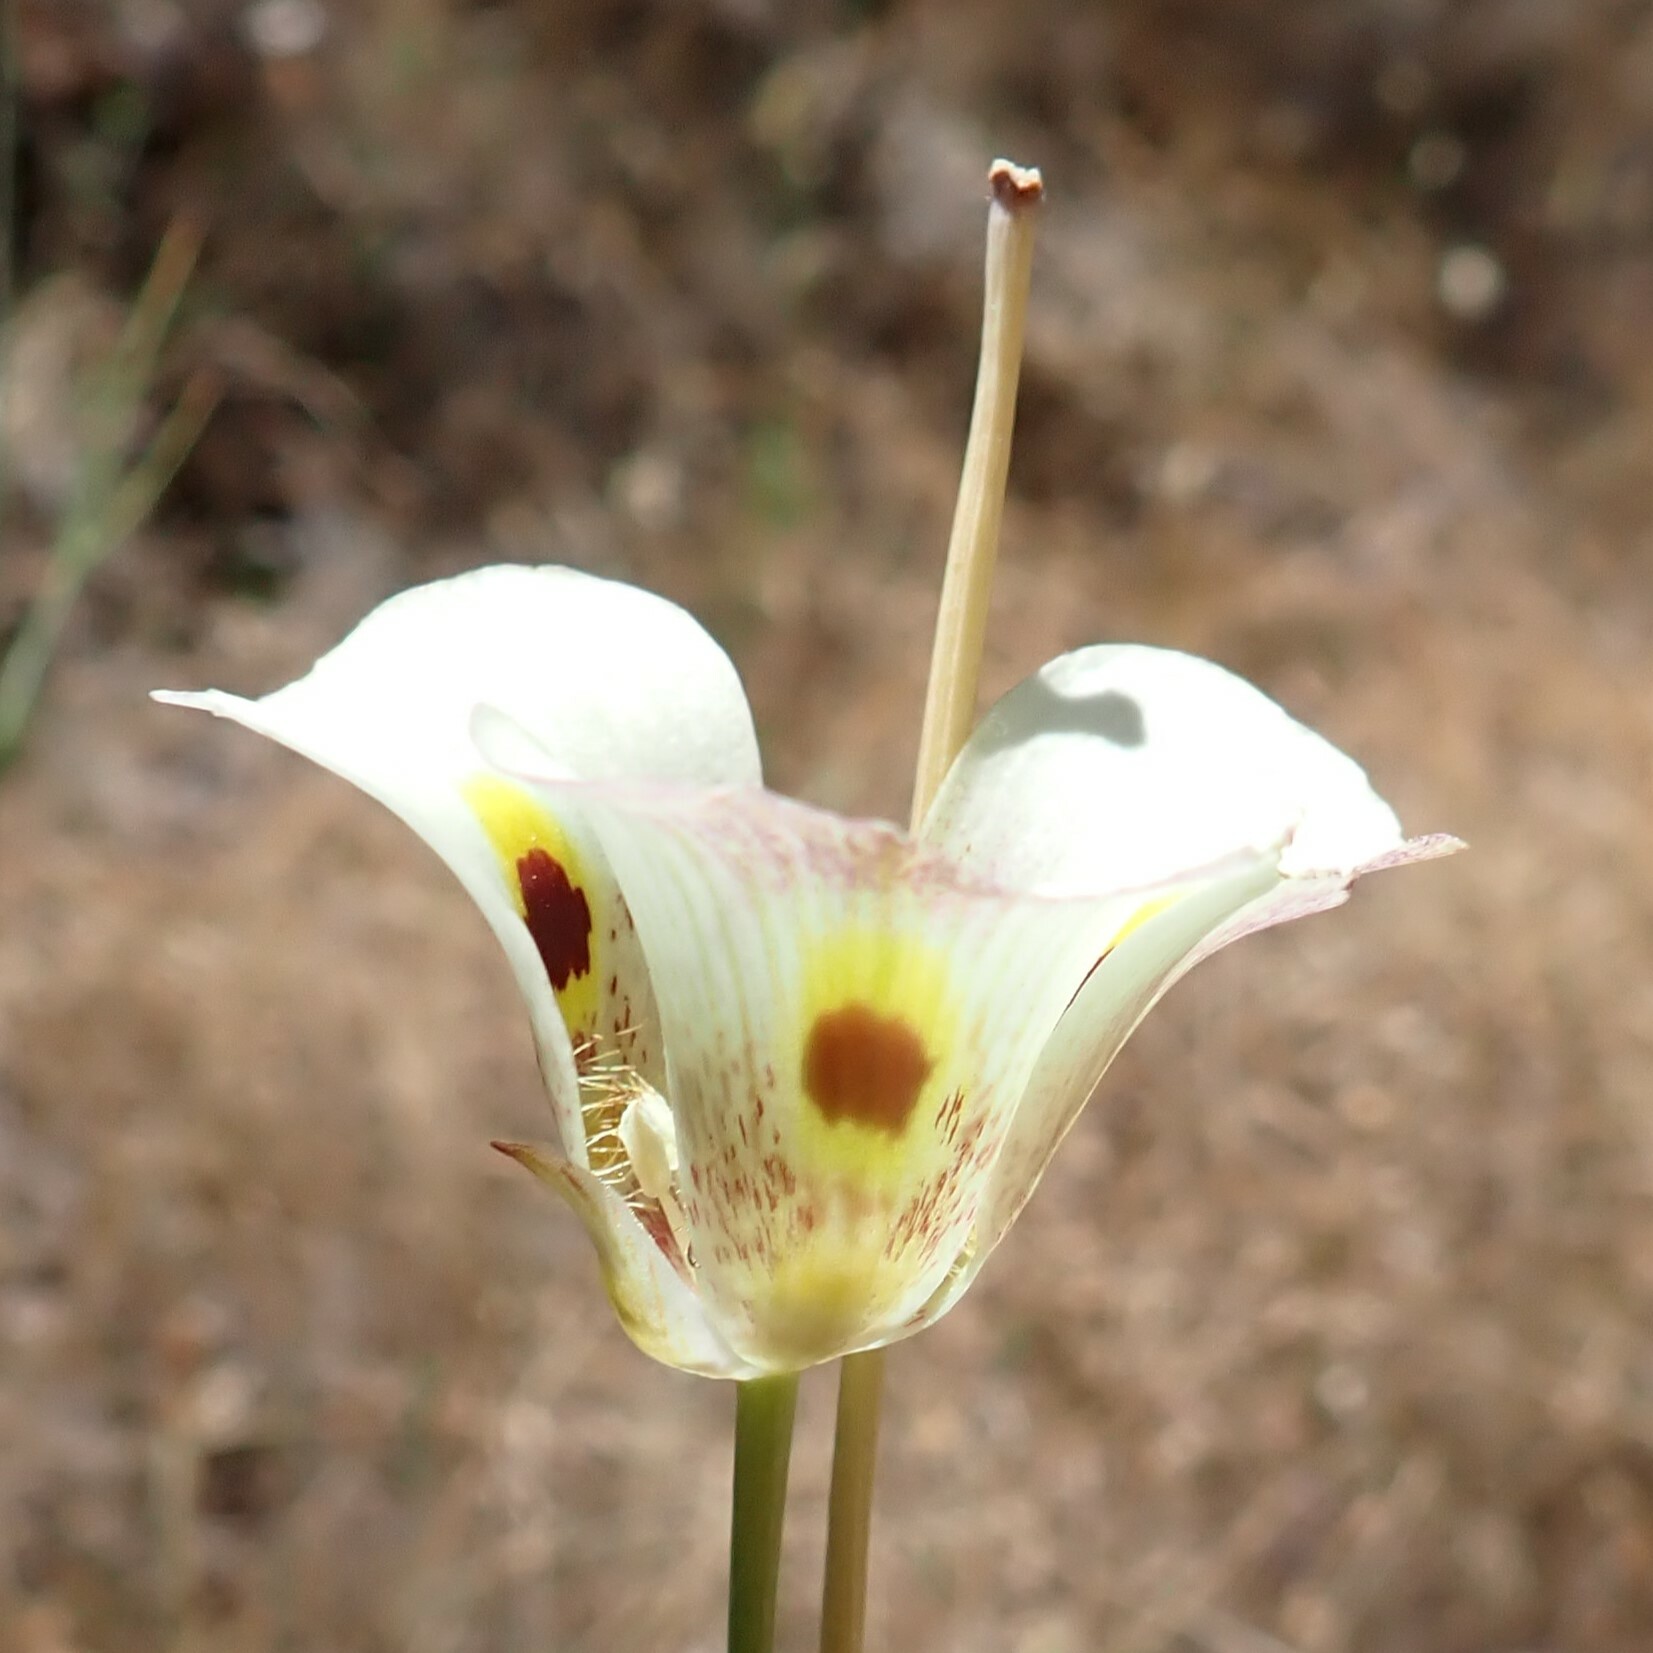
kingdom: Plantae
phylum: Tracheophyta
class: Liliopsida
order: Liliales
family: Liliaceae
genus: Calochortus
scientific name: Calochortus superbus
